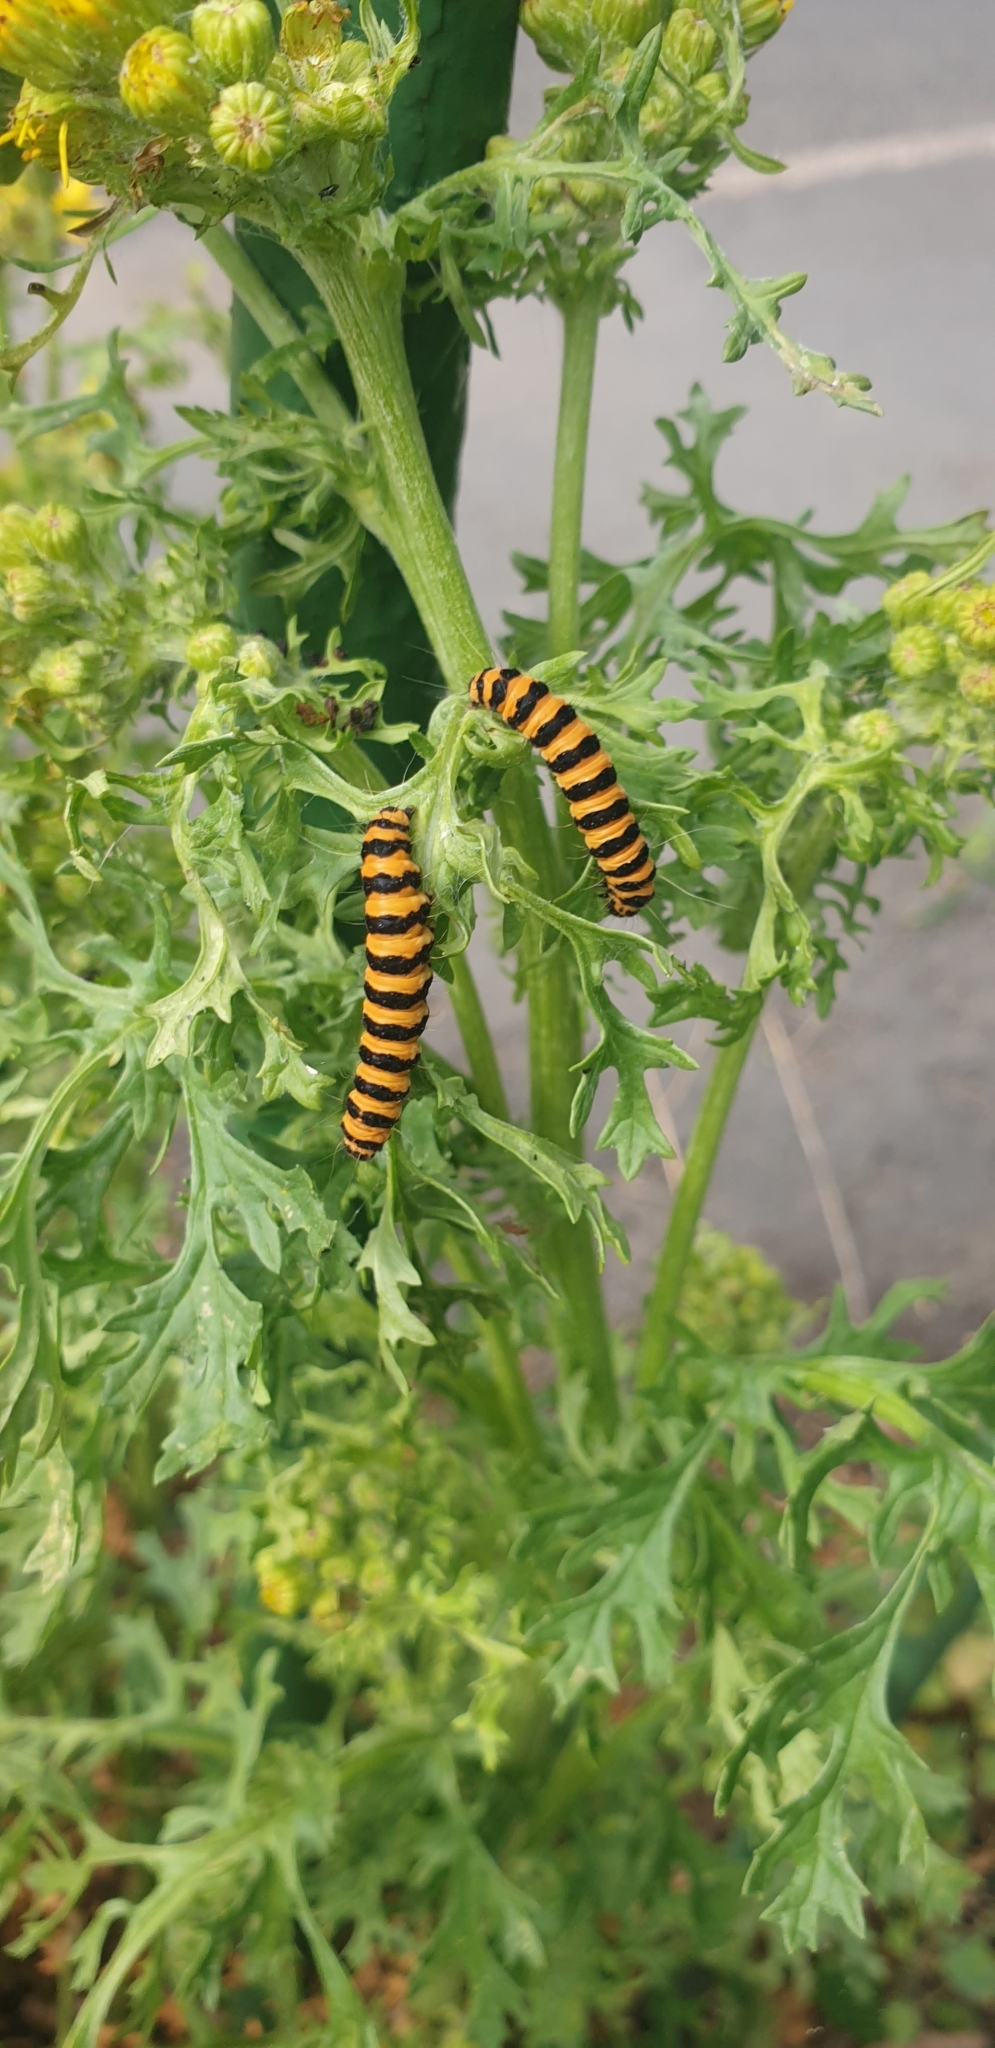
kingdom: Animalia
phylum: Arthropoda
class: Insecta
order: Lepidoptera
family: Erebidae
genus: Tyria
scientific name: Tyria jacobaeae
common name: Cinnabar
